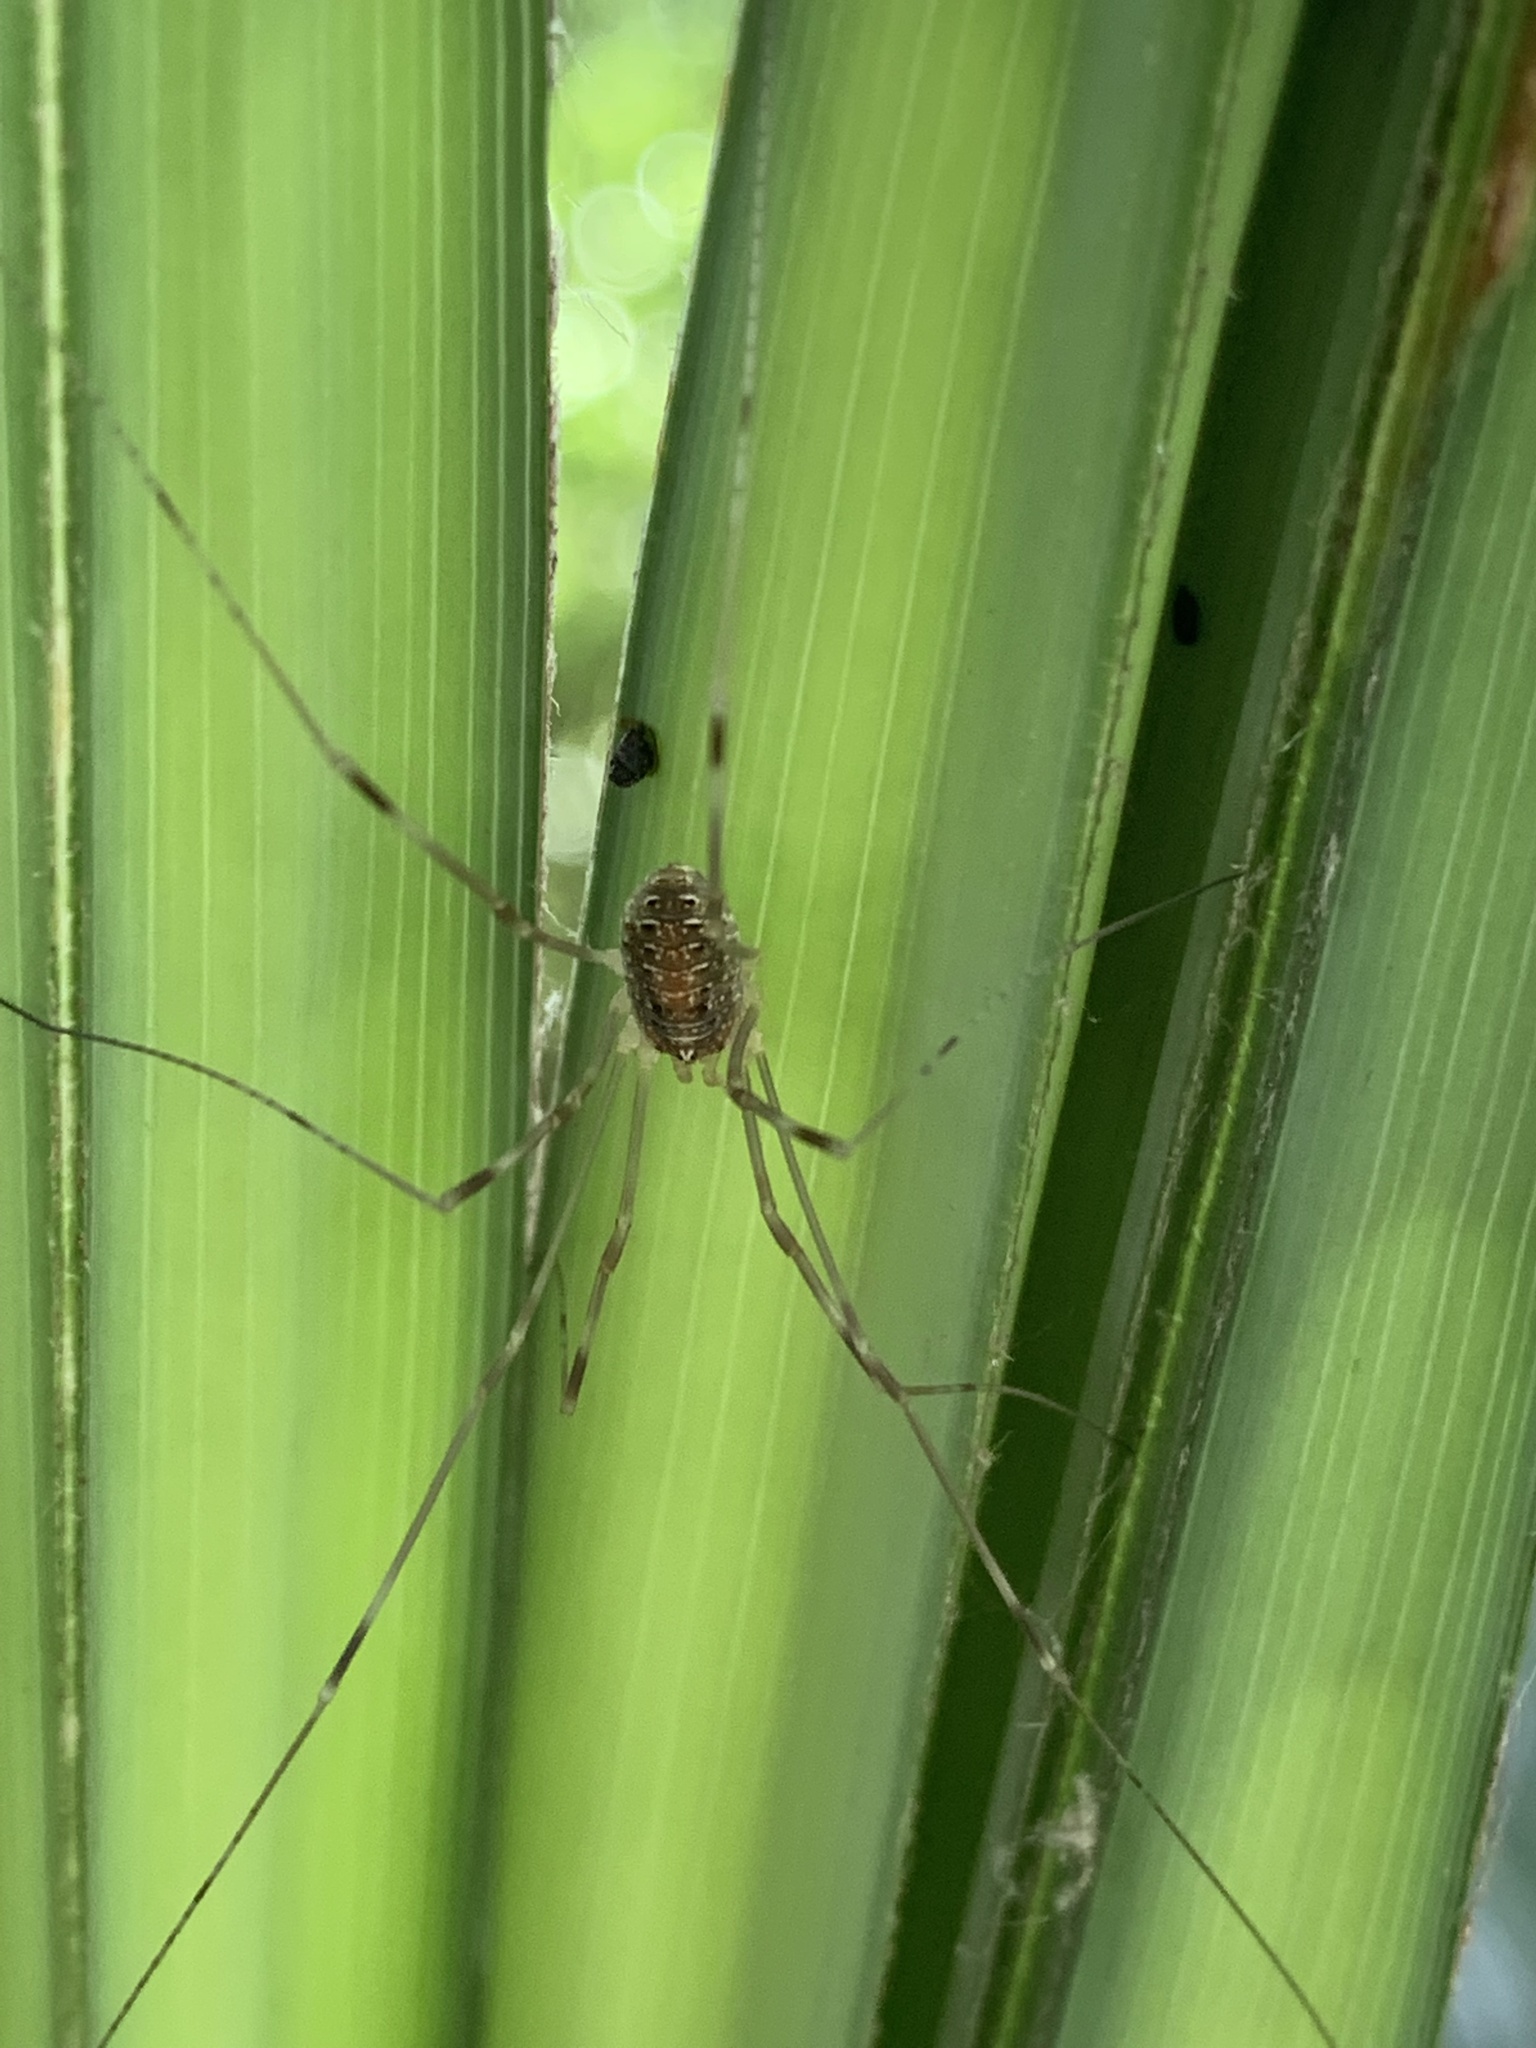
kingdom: Animalia
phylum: Arthropoda
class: Arachnida
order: Opiliones
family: Phalangiidae
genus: Opilio
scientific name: Opilio canestrinii
